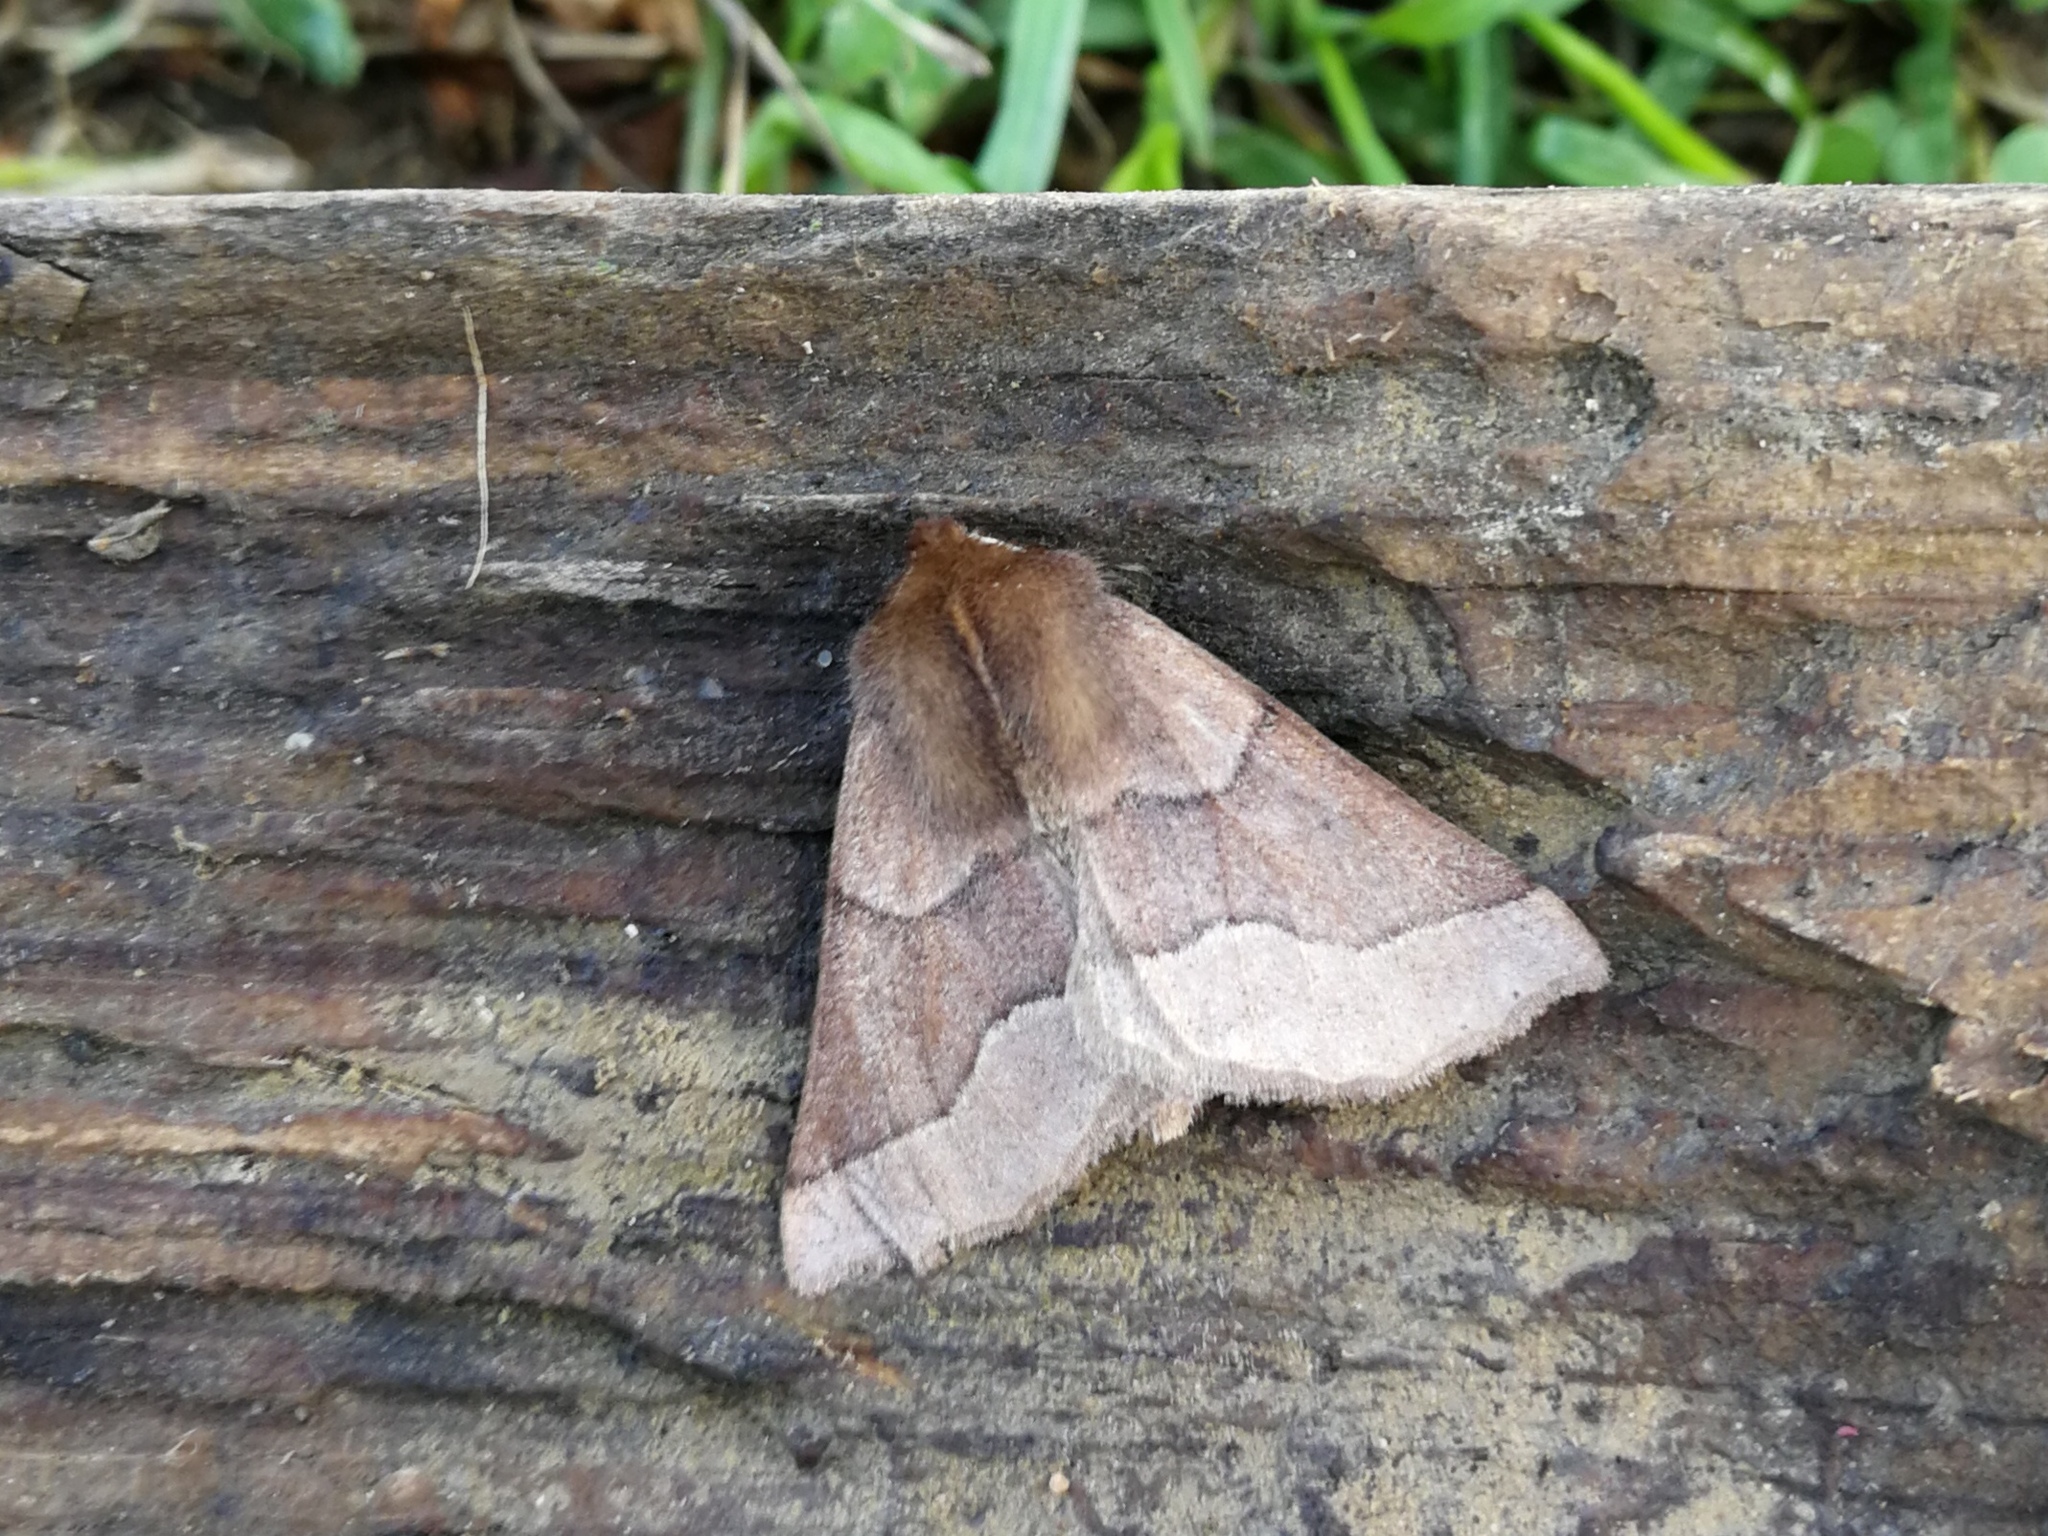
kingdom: Animalia
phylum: Arthropoda
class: Insecta
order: Lepidoptera
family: Geometridae
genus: Crocallis
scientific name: Crocallis tusciaria
